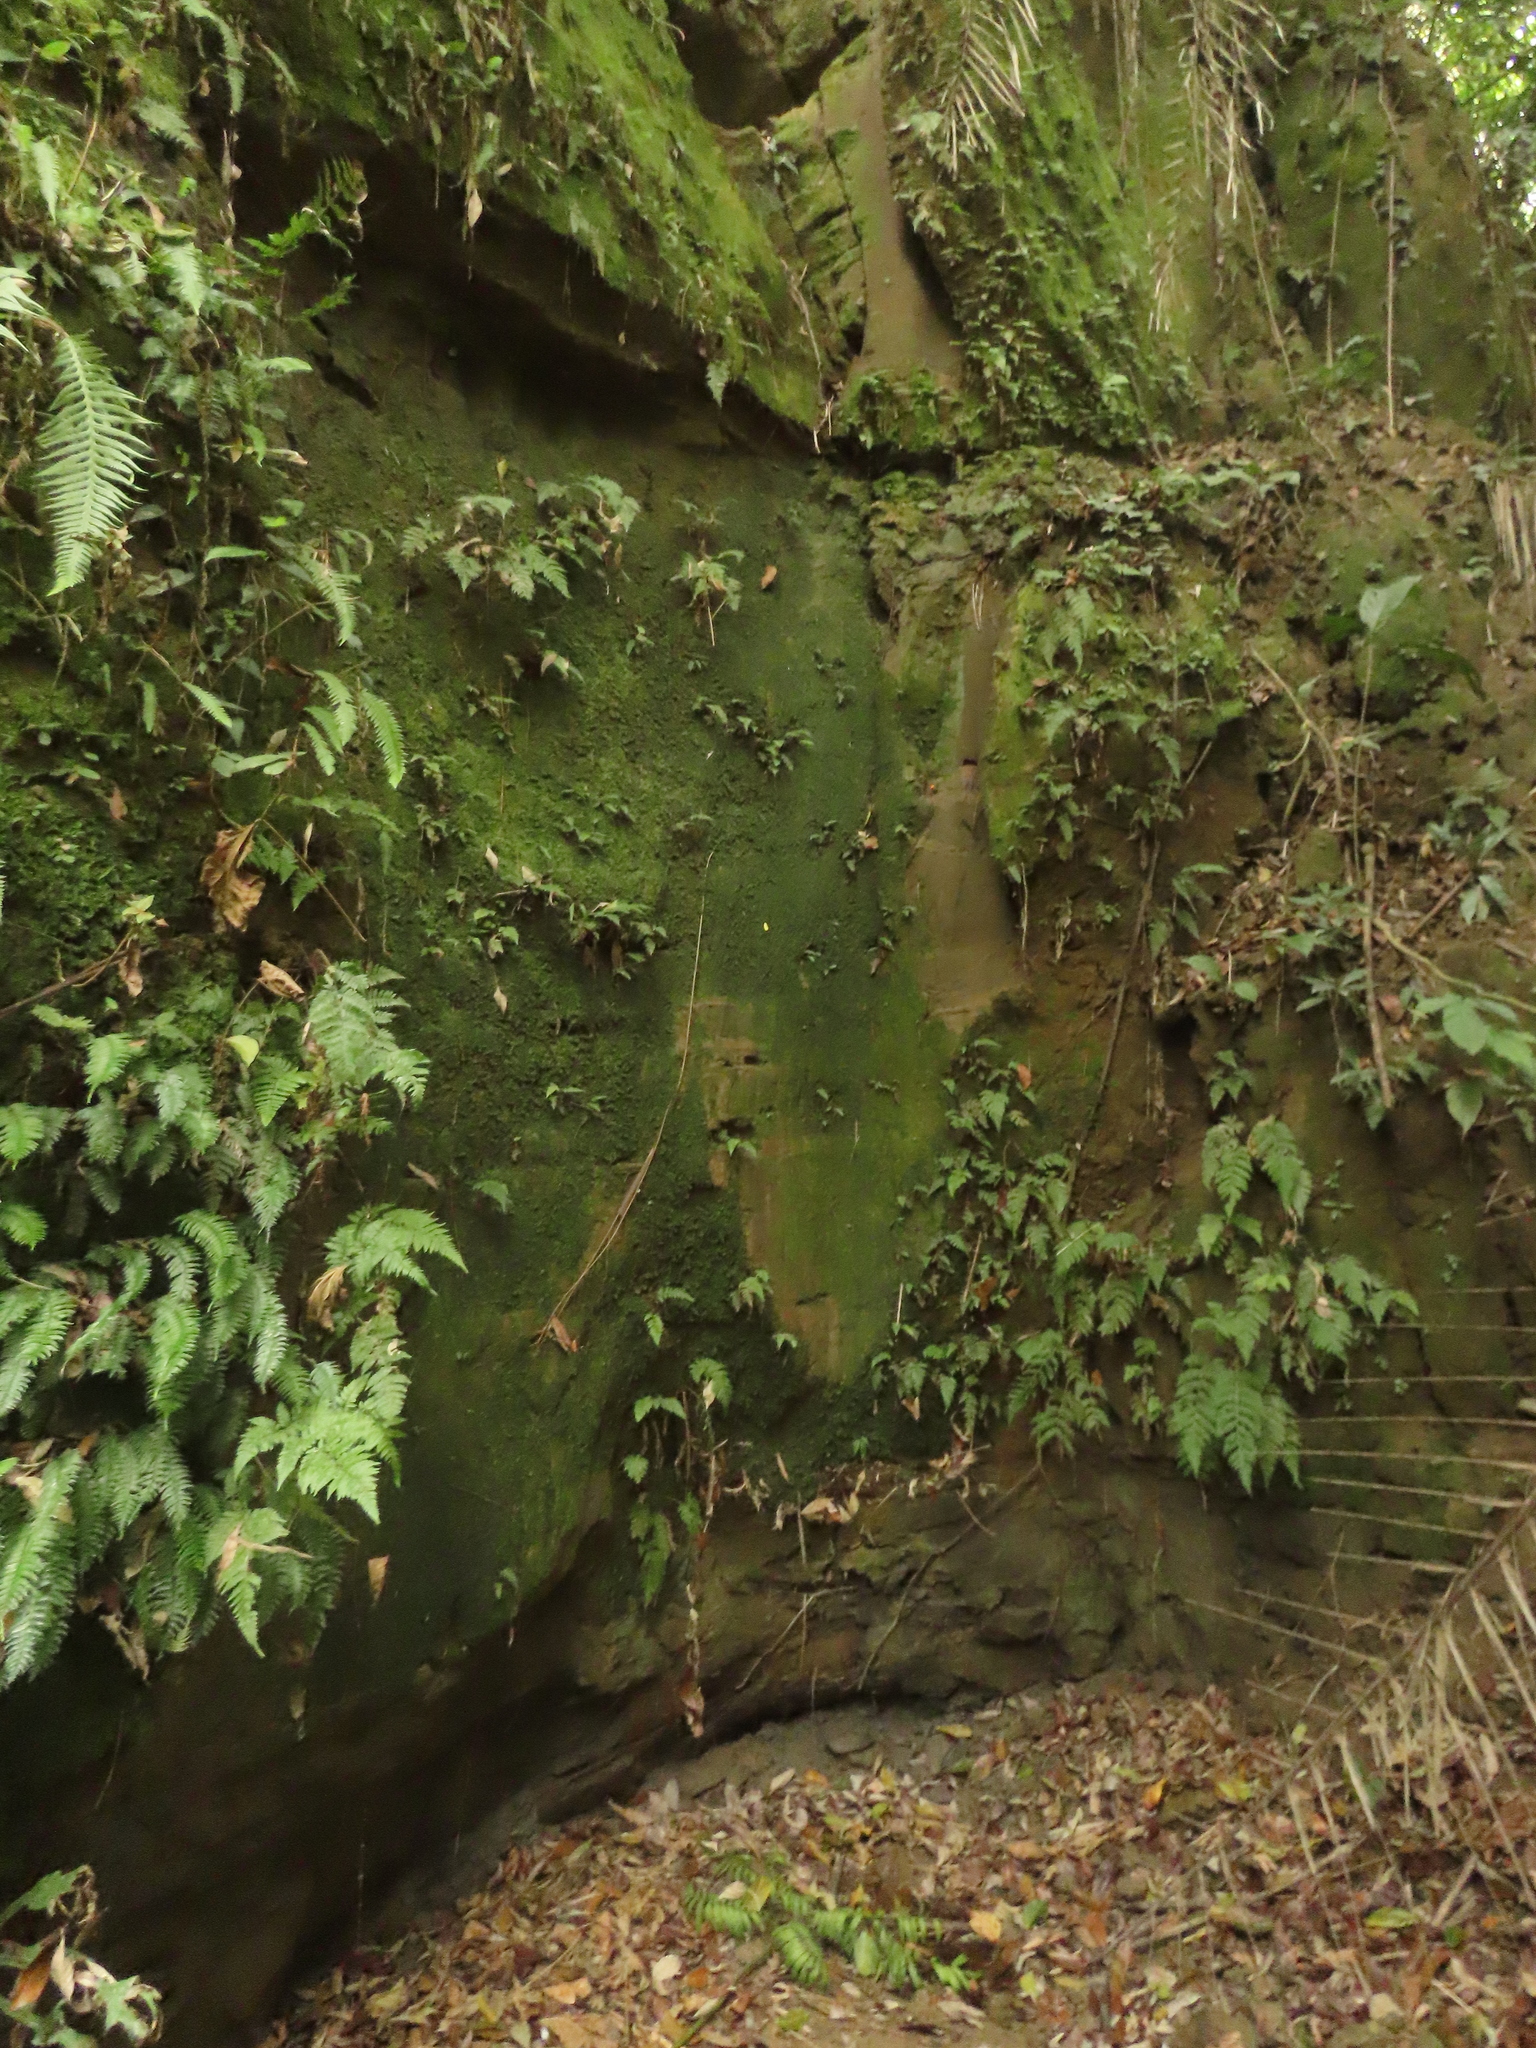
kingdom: Plantae
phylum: Tracheophyta
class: Polypodiopsida
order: Polypodiales
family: Aspleniaceae
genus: Hymenasplenium
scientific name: Hymenasplenium pubirhizoma
